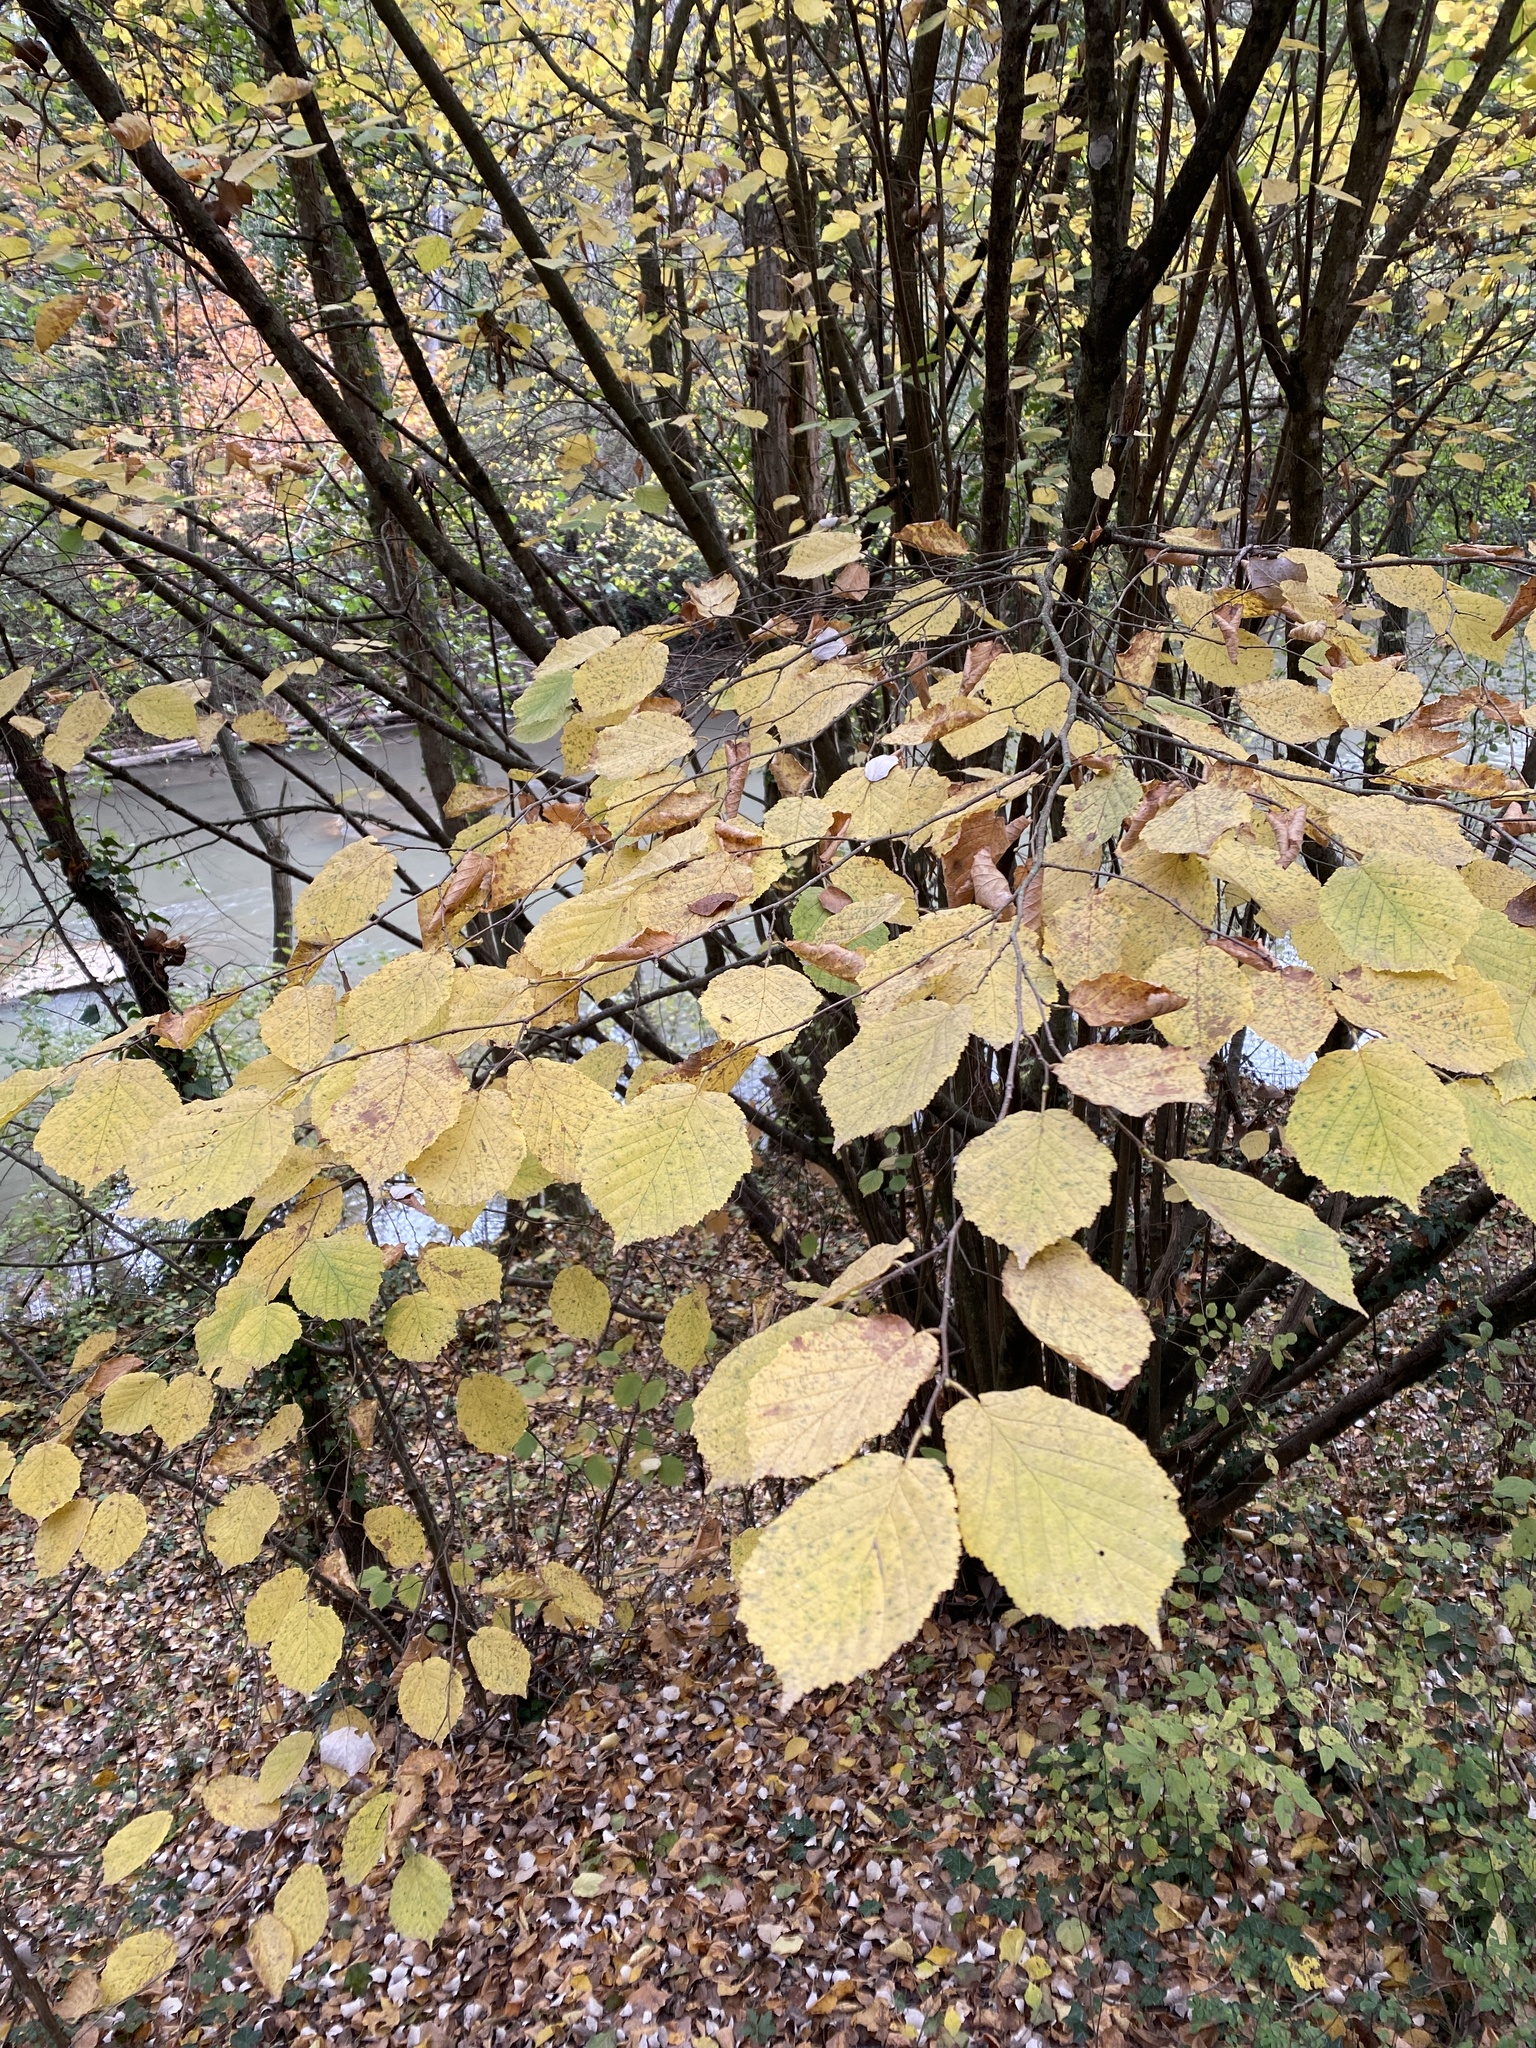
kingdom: Plantae
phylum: Tracheophyta
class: Magnoliopsida
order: Fagales
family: Betulaceae
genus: Corylus
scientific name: Corylus avellana
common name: European hazel
